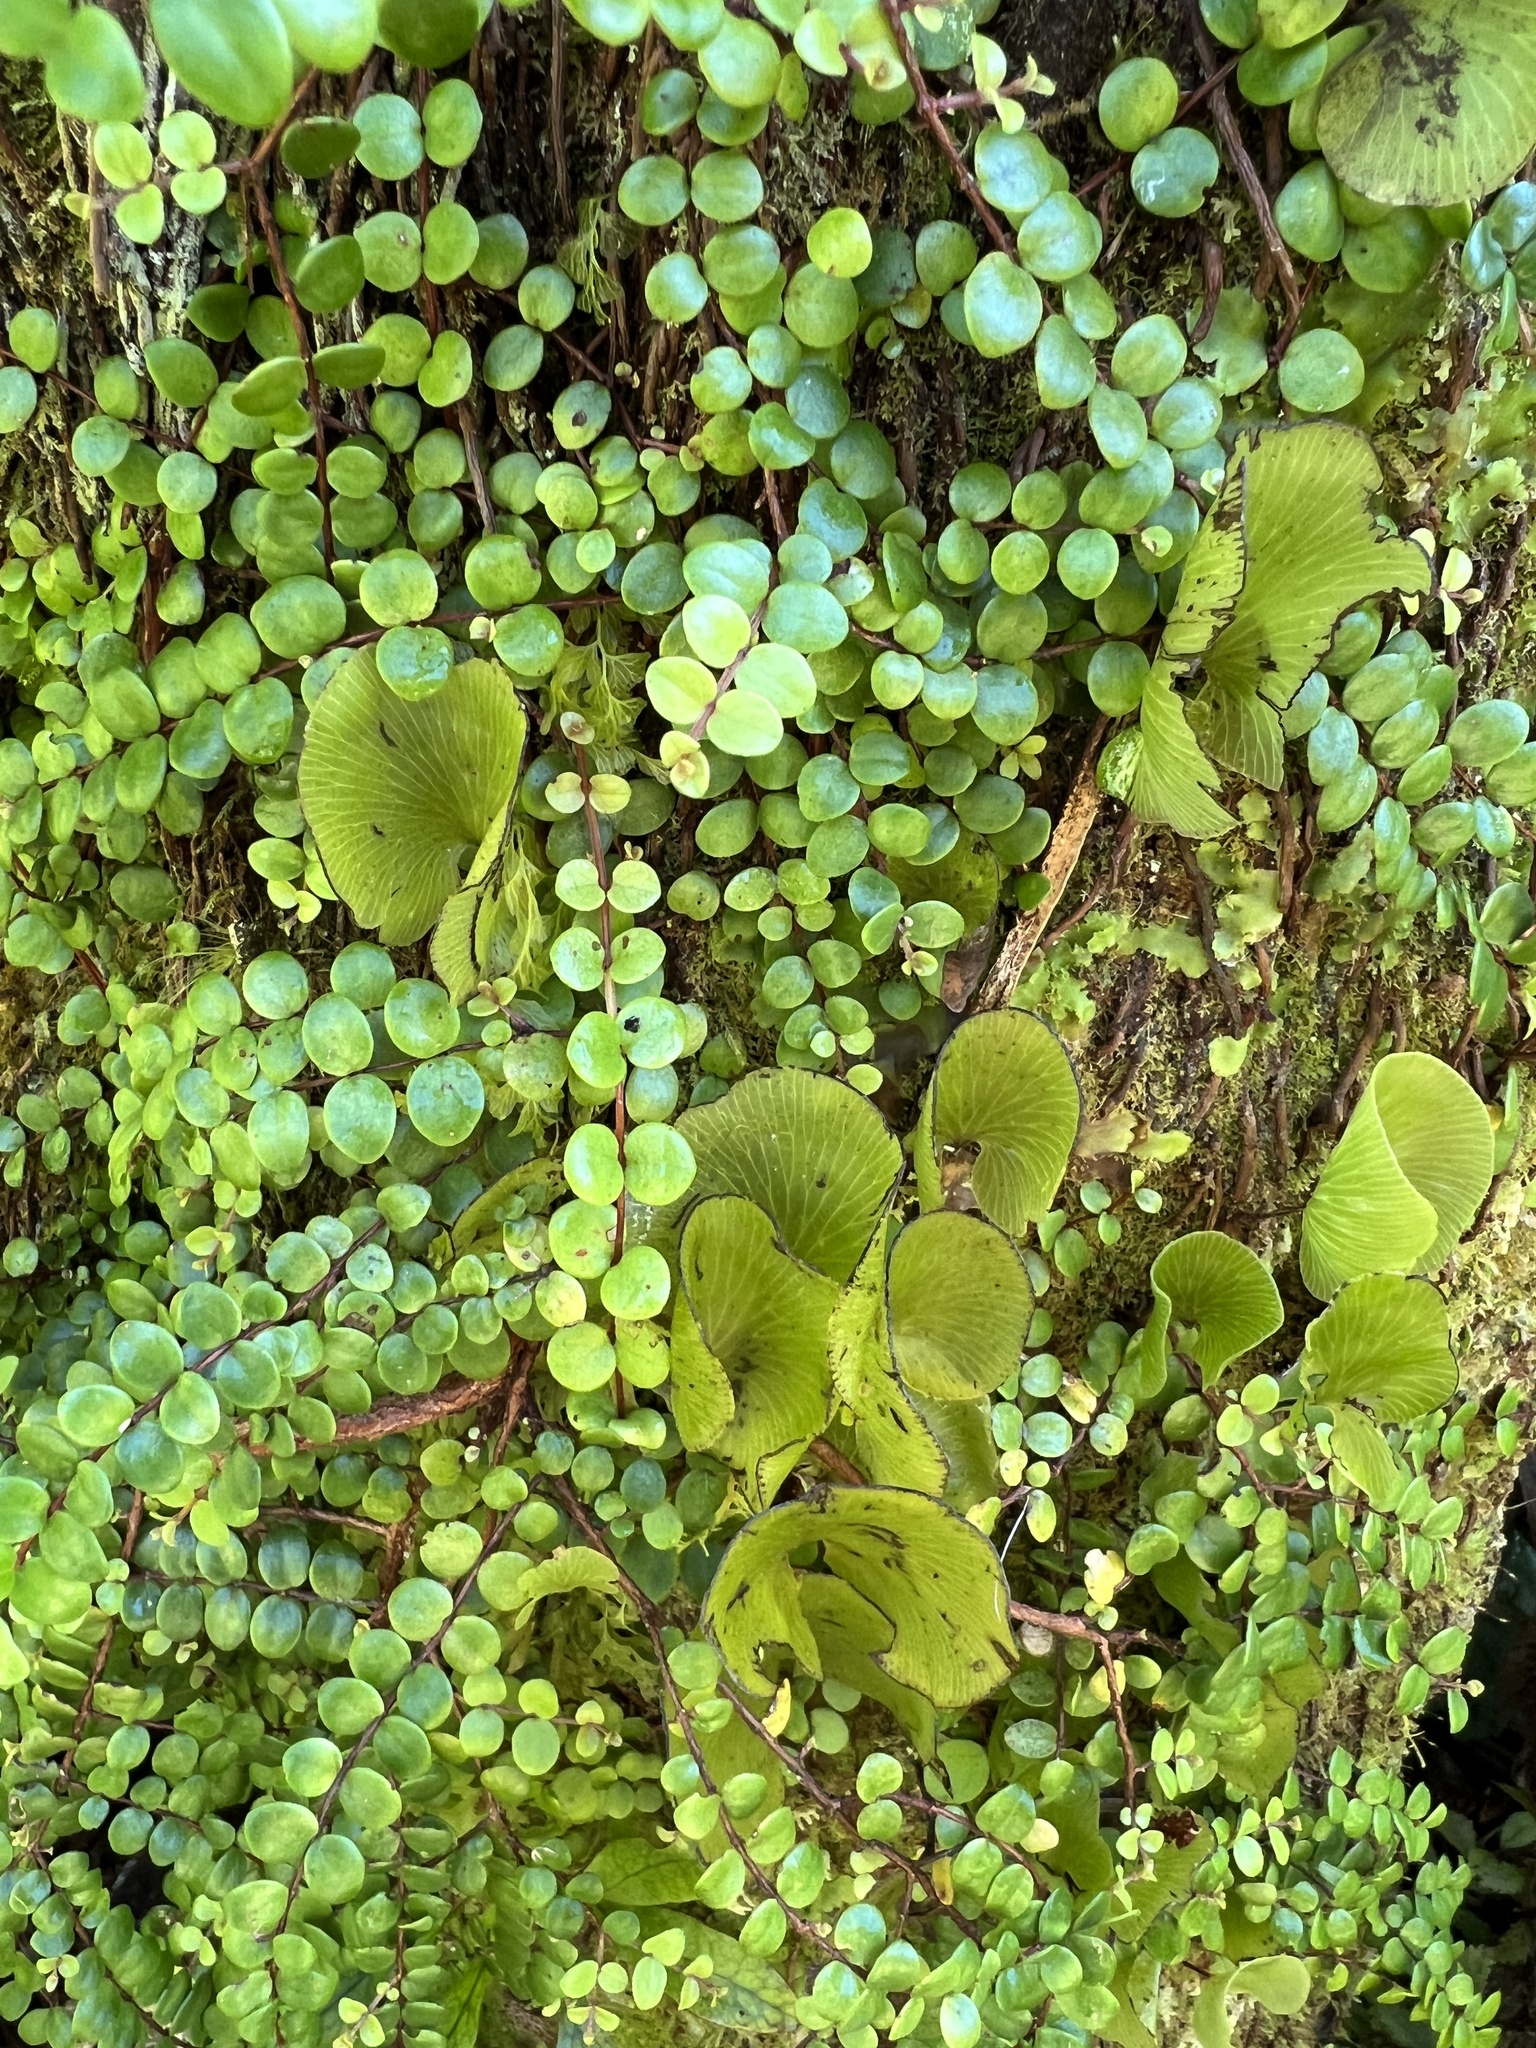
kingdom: Plantae
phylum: Tracheophyta
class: Polypodiopsida
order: Hymenophyllales
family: Hymenophyllaceae
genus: Hymenophyllum
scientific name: Hymenophyllum nephrophyllum
